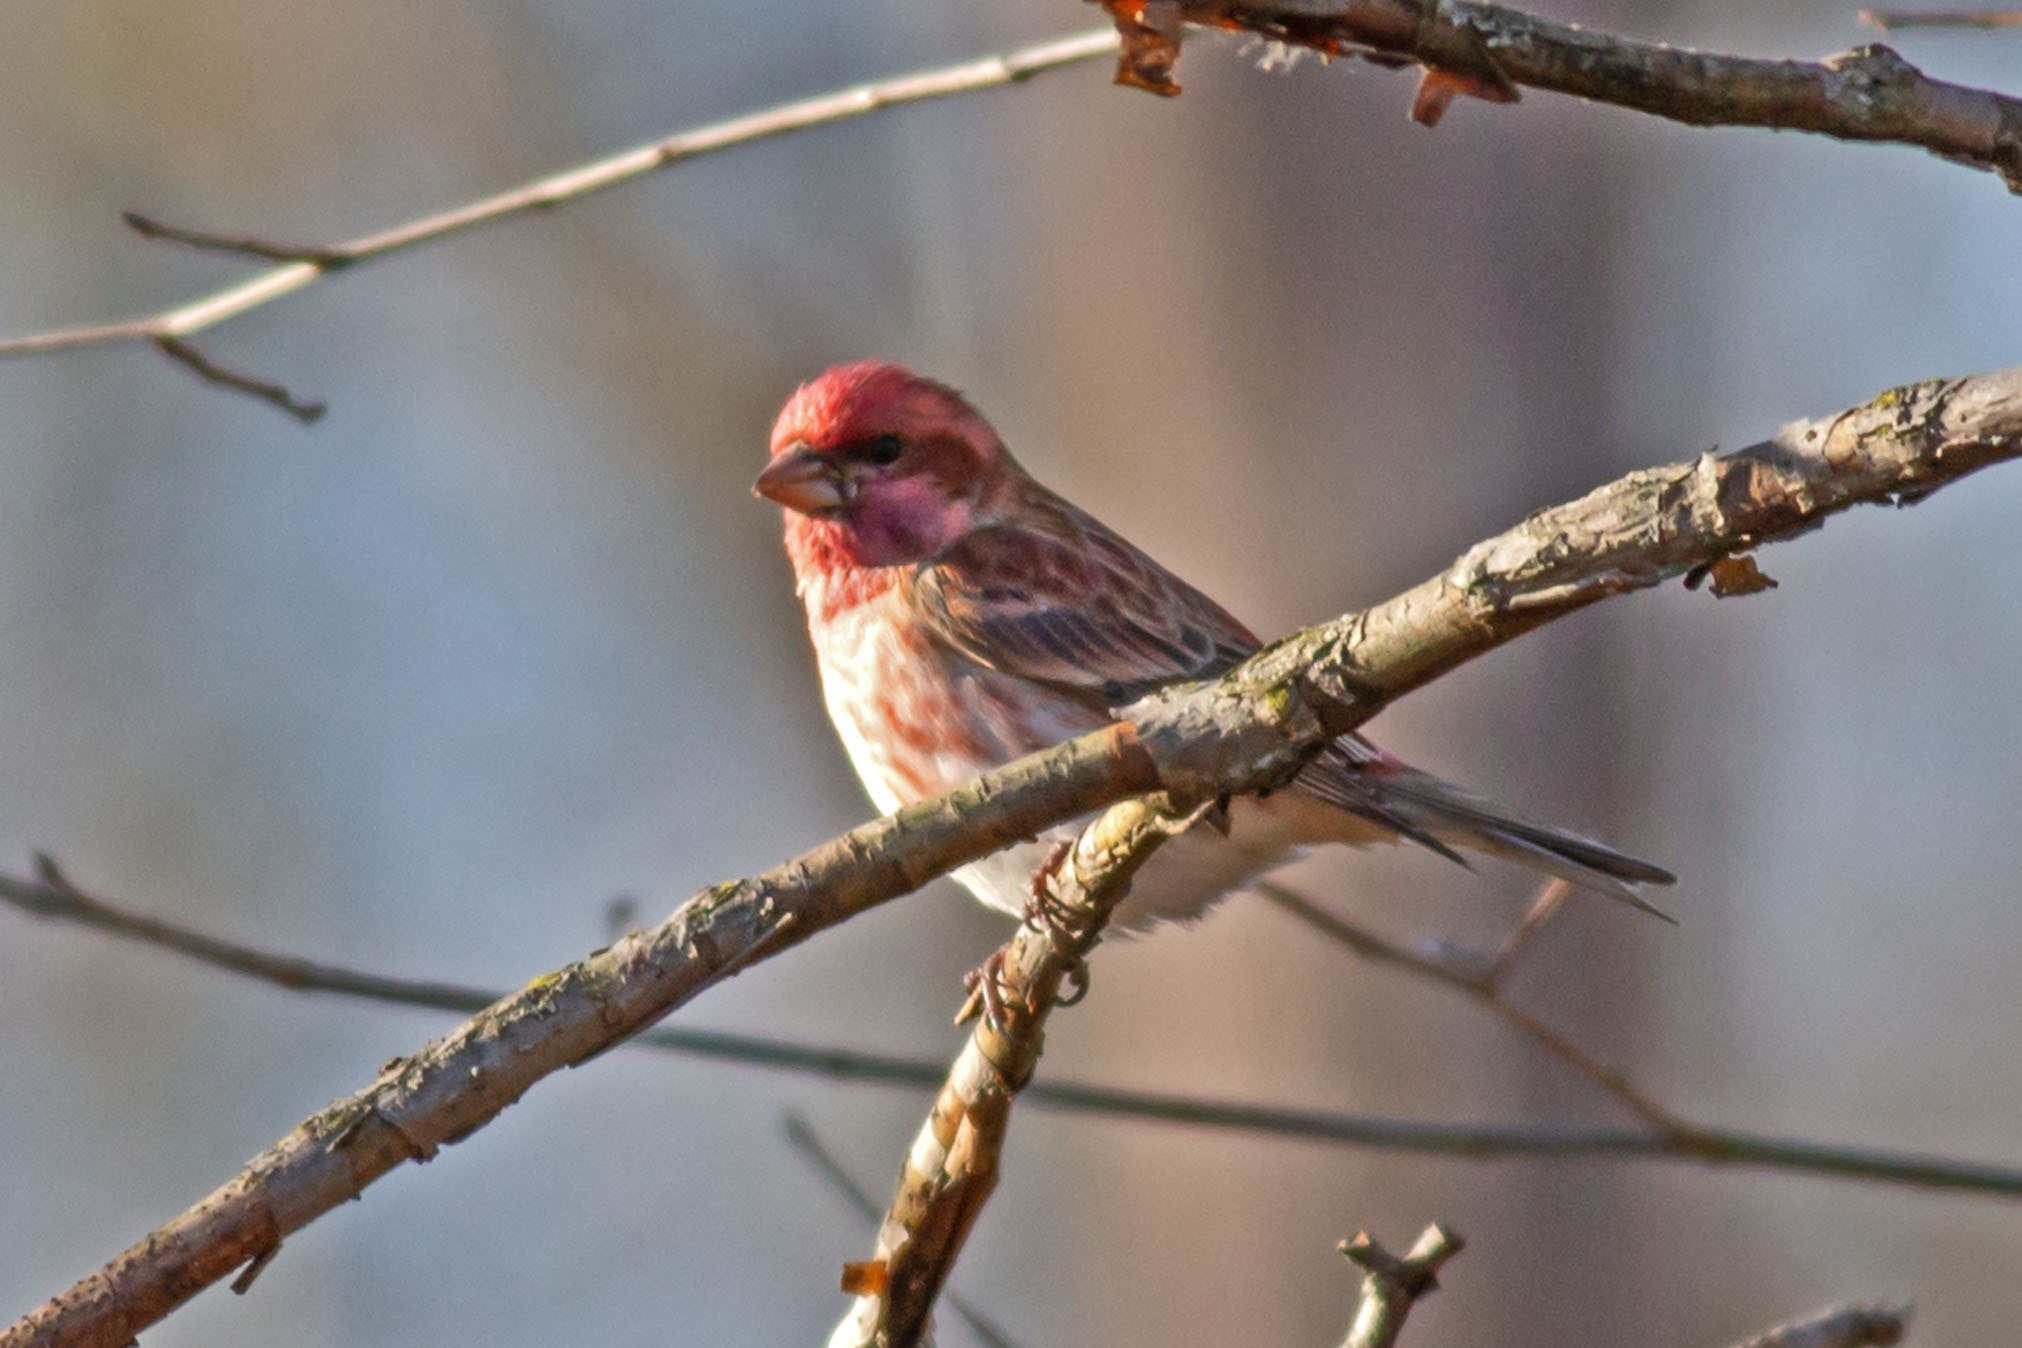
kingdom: Animalia
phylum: Chordata
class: Aves
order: Passeriformes
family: Fringillidae
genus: Haemorhous
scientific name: Haemorhous purpureus
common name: Purple finch
